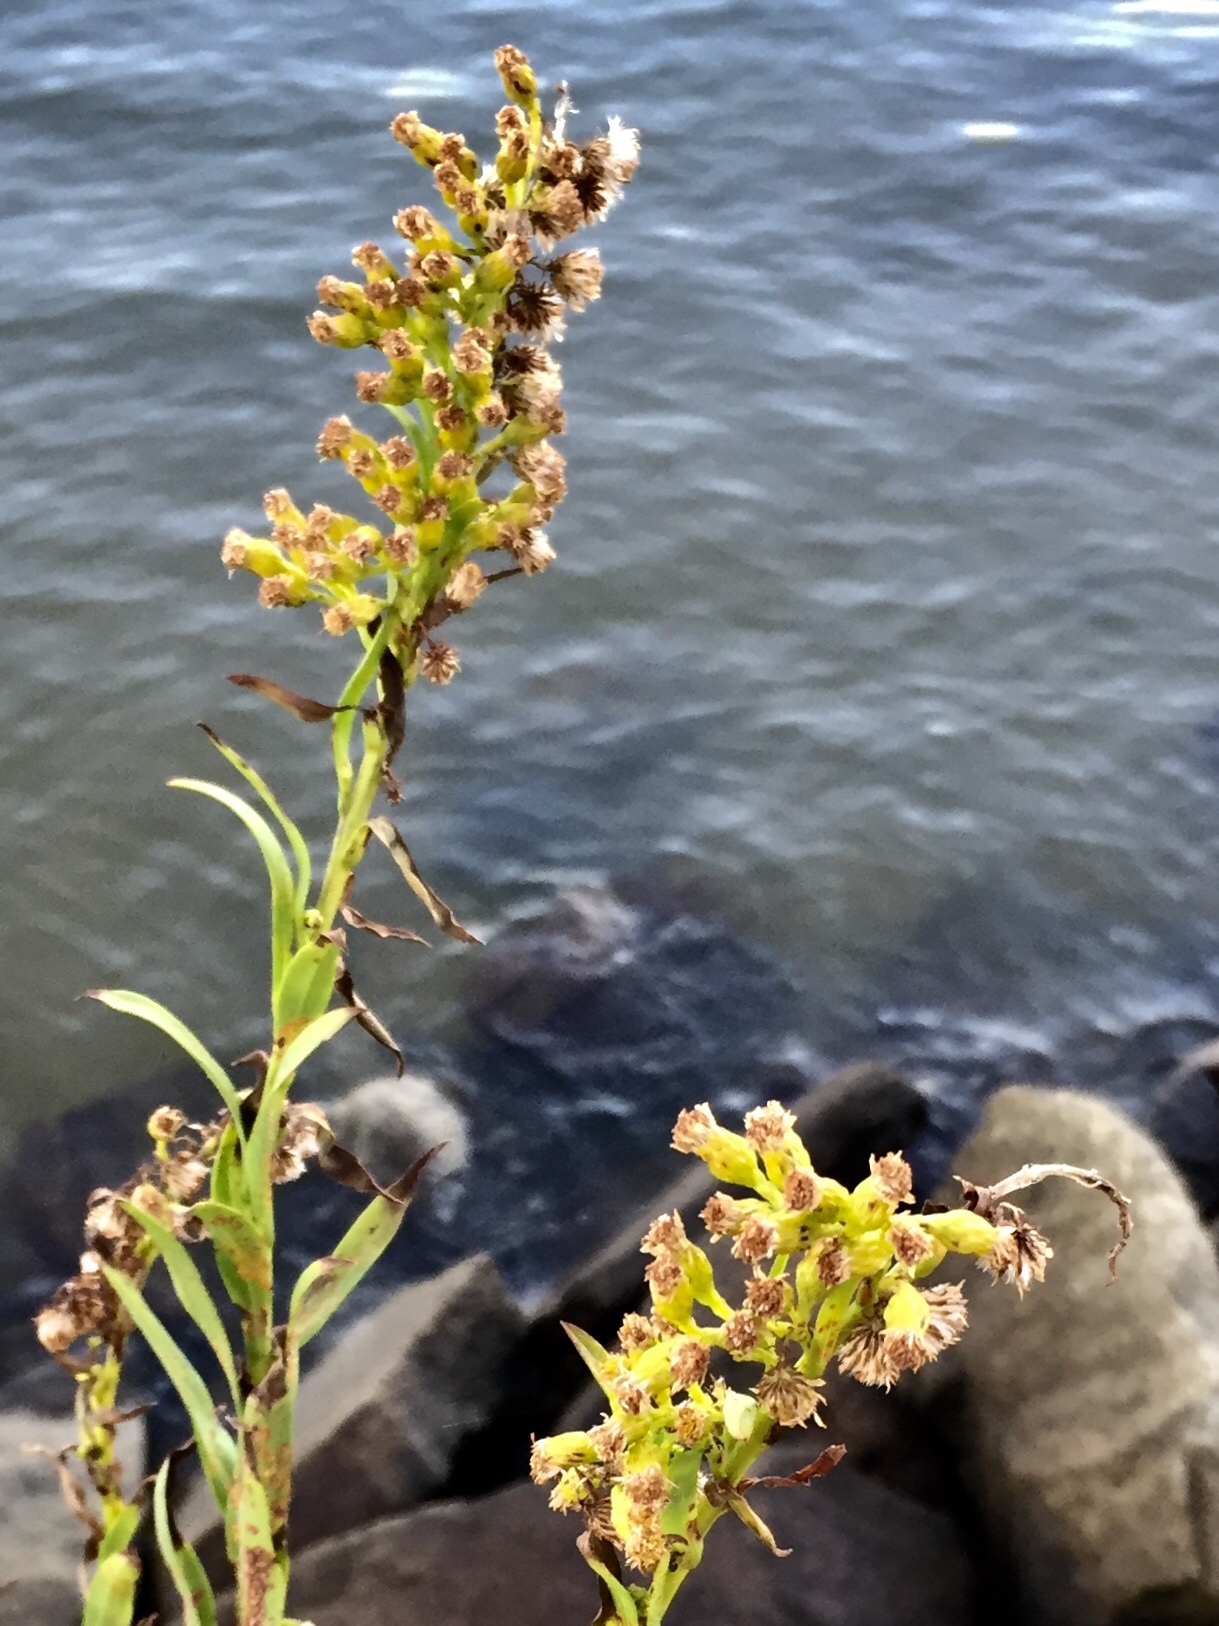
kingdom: Plantae
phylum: Tracheophyta
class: Magnoliopsida
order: Asterales
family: Asteraceae
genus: Solidago
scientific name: Solidago sempervirens
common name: Salt-marsh goldenrod
